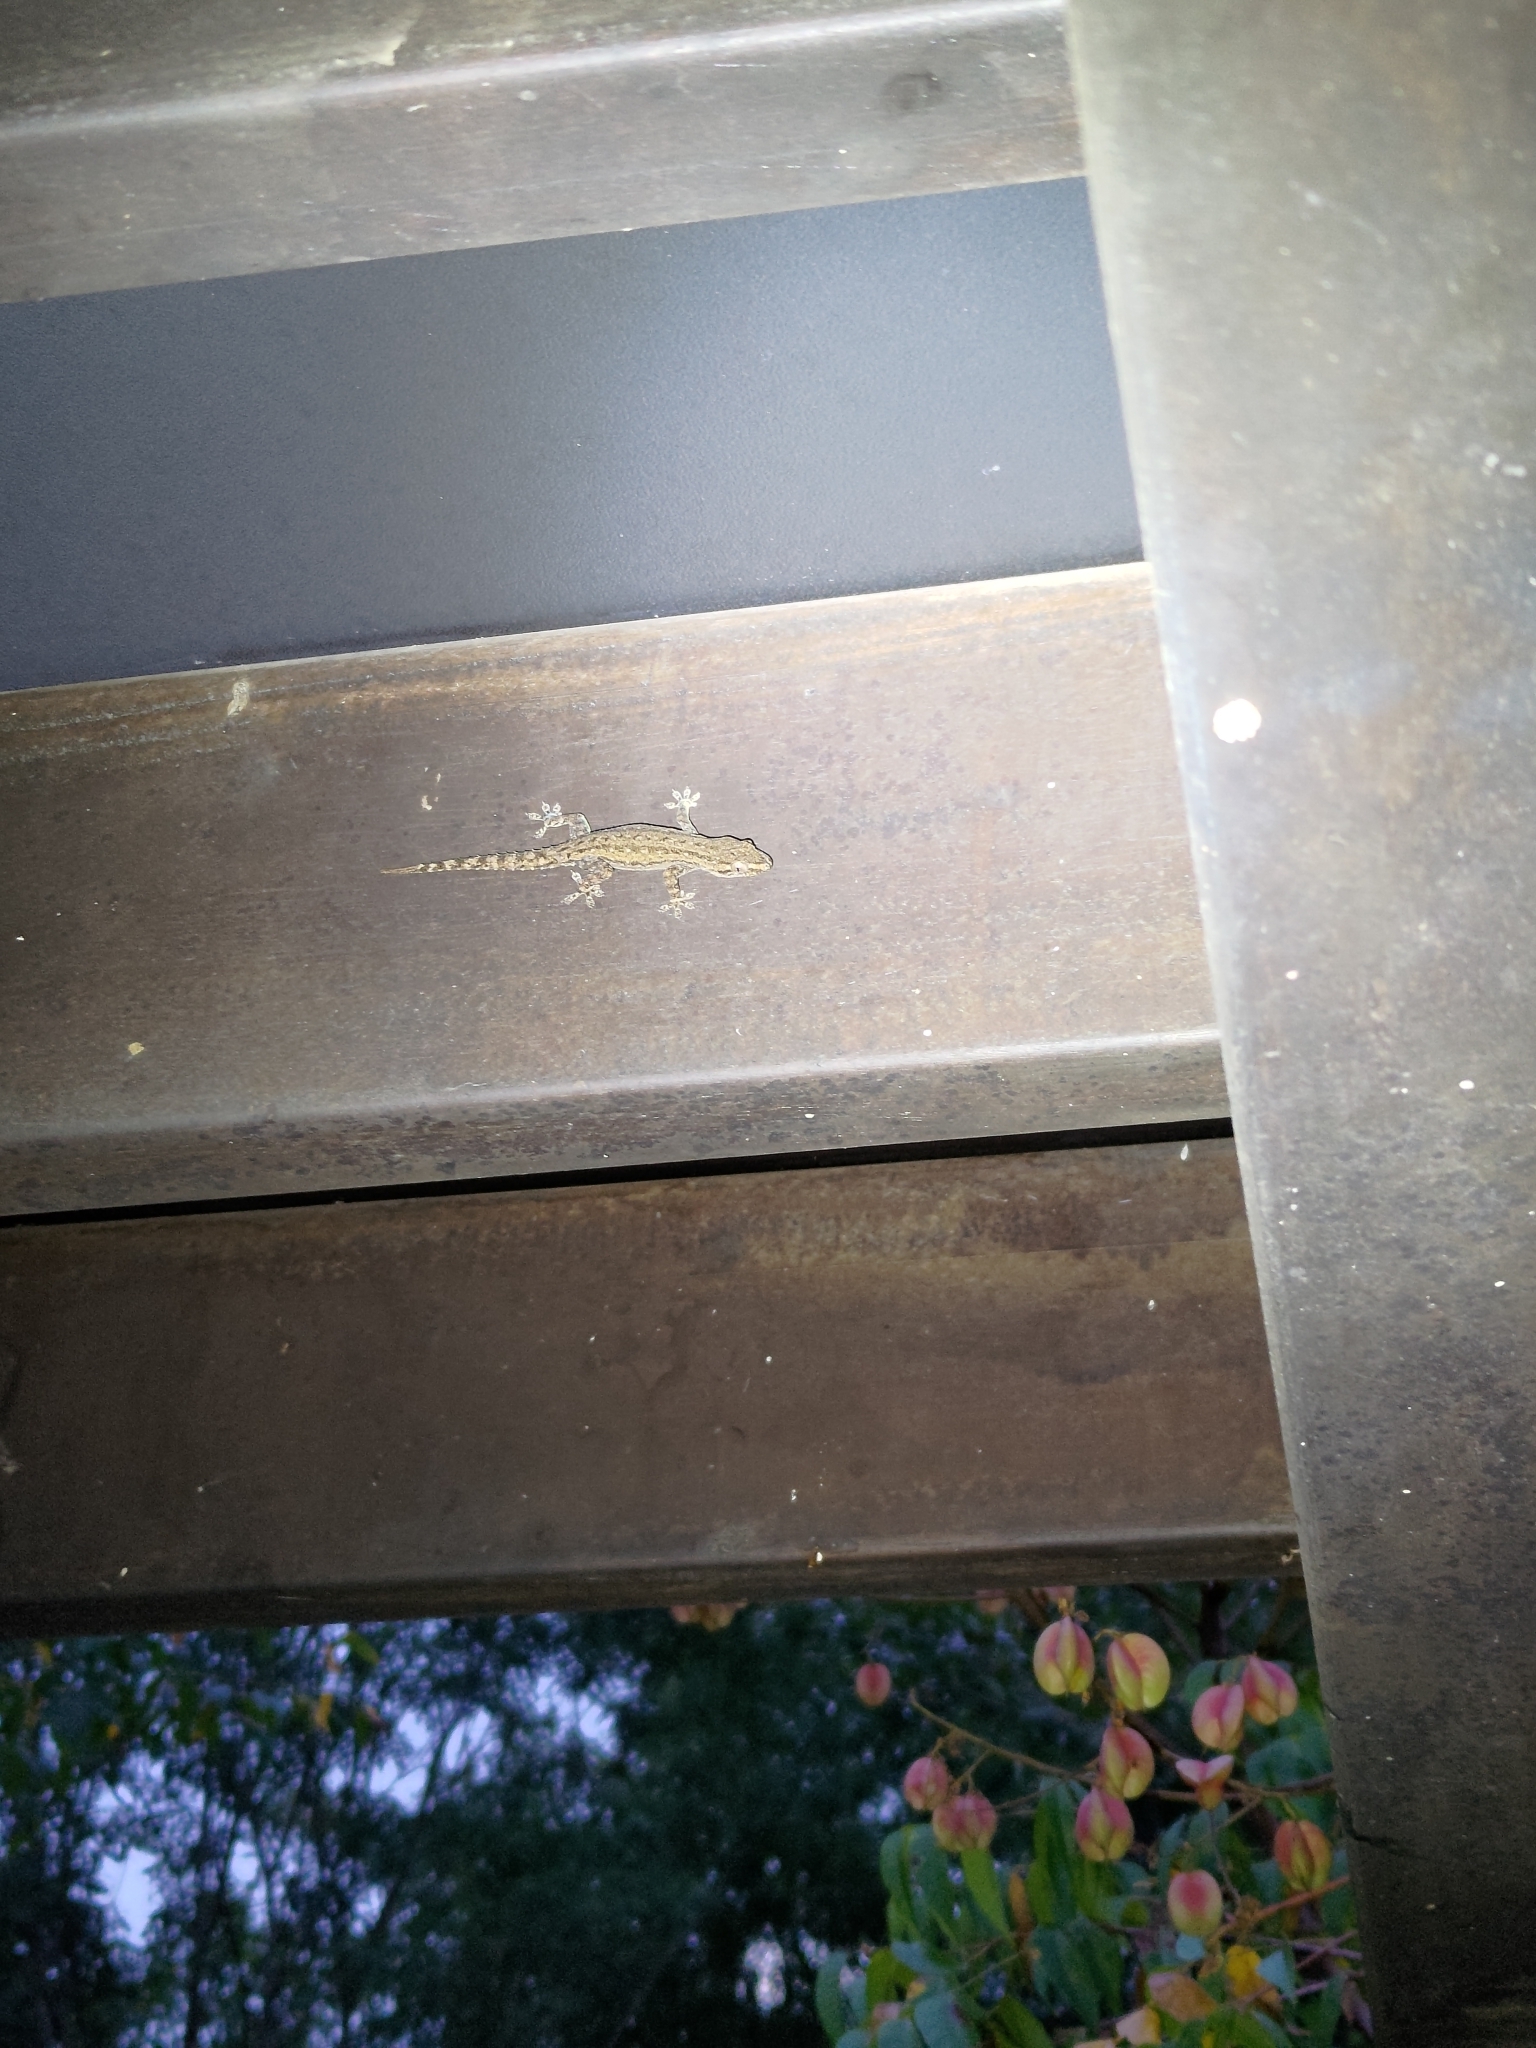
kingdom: Animalia
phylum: Chordata
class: Squamata
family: Gekkonidae
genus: Hemidactylus
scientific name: Hemidactylus frenatus
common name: Common house gecko
